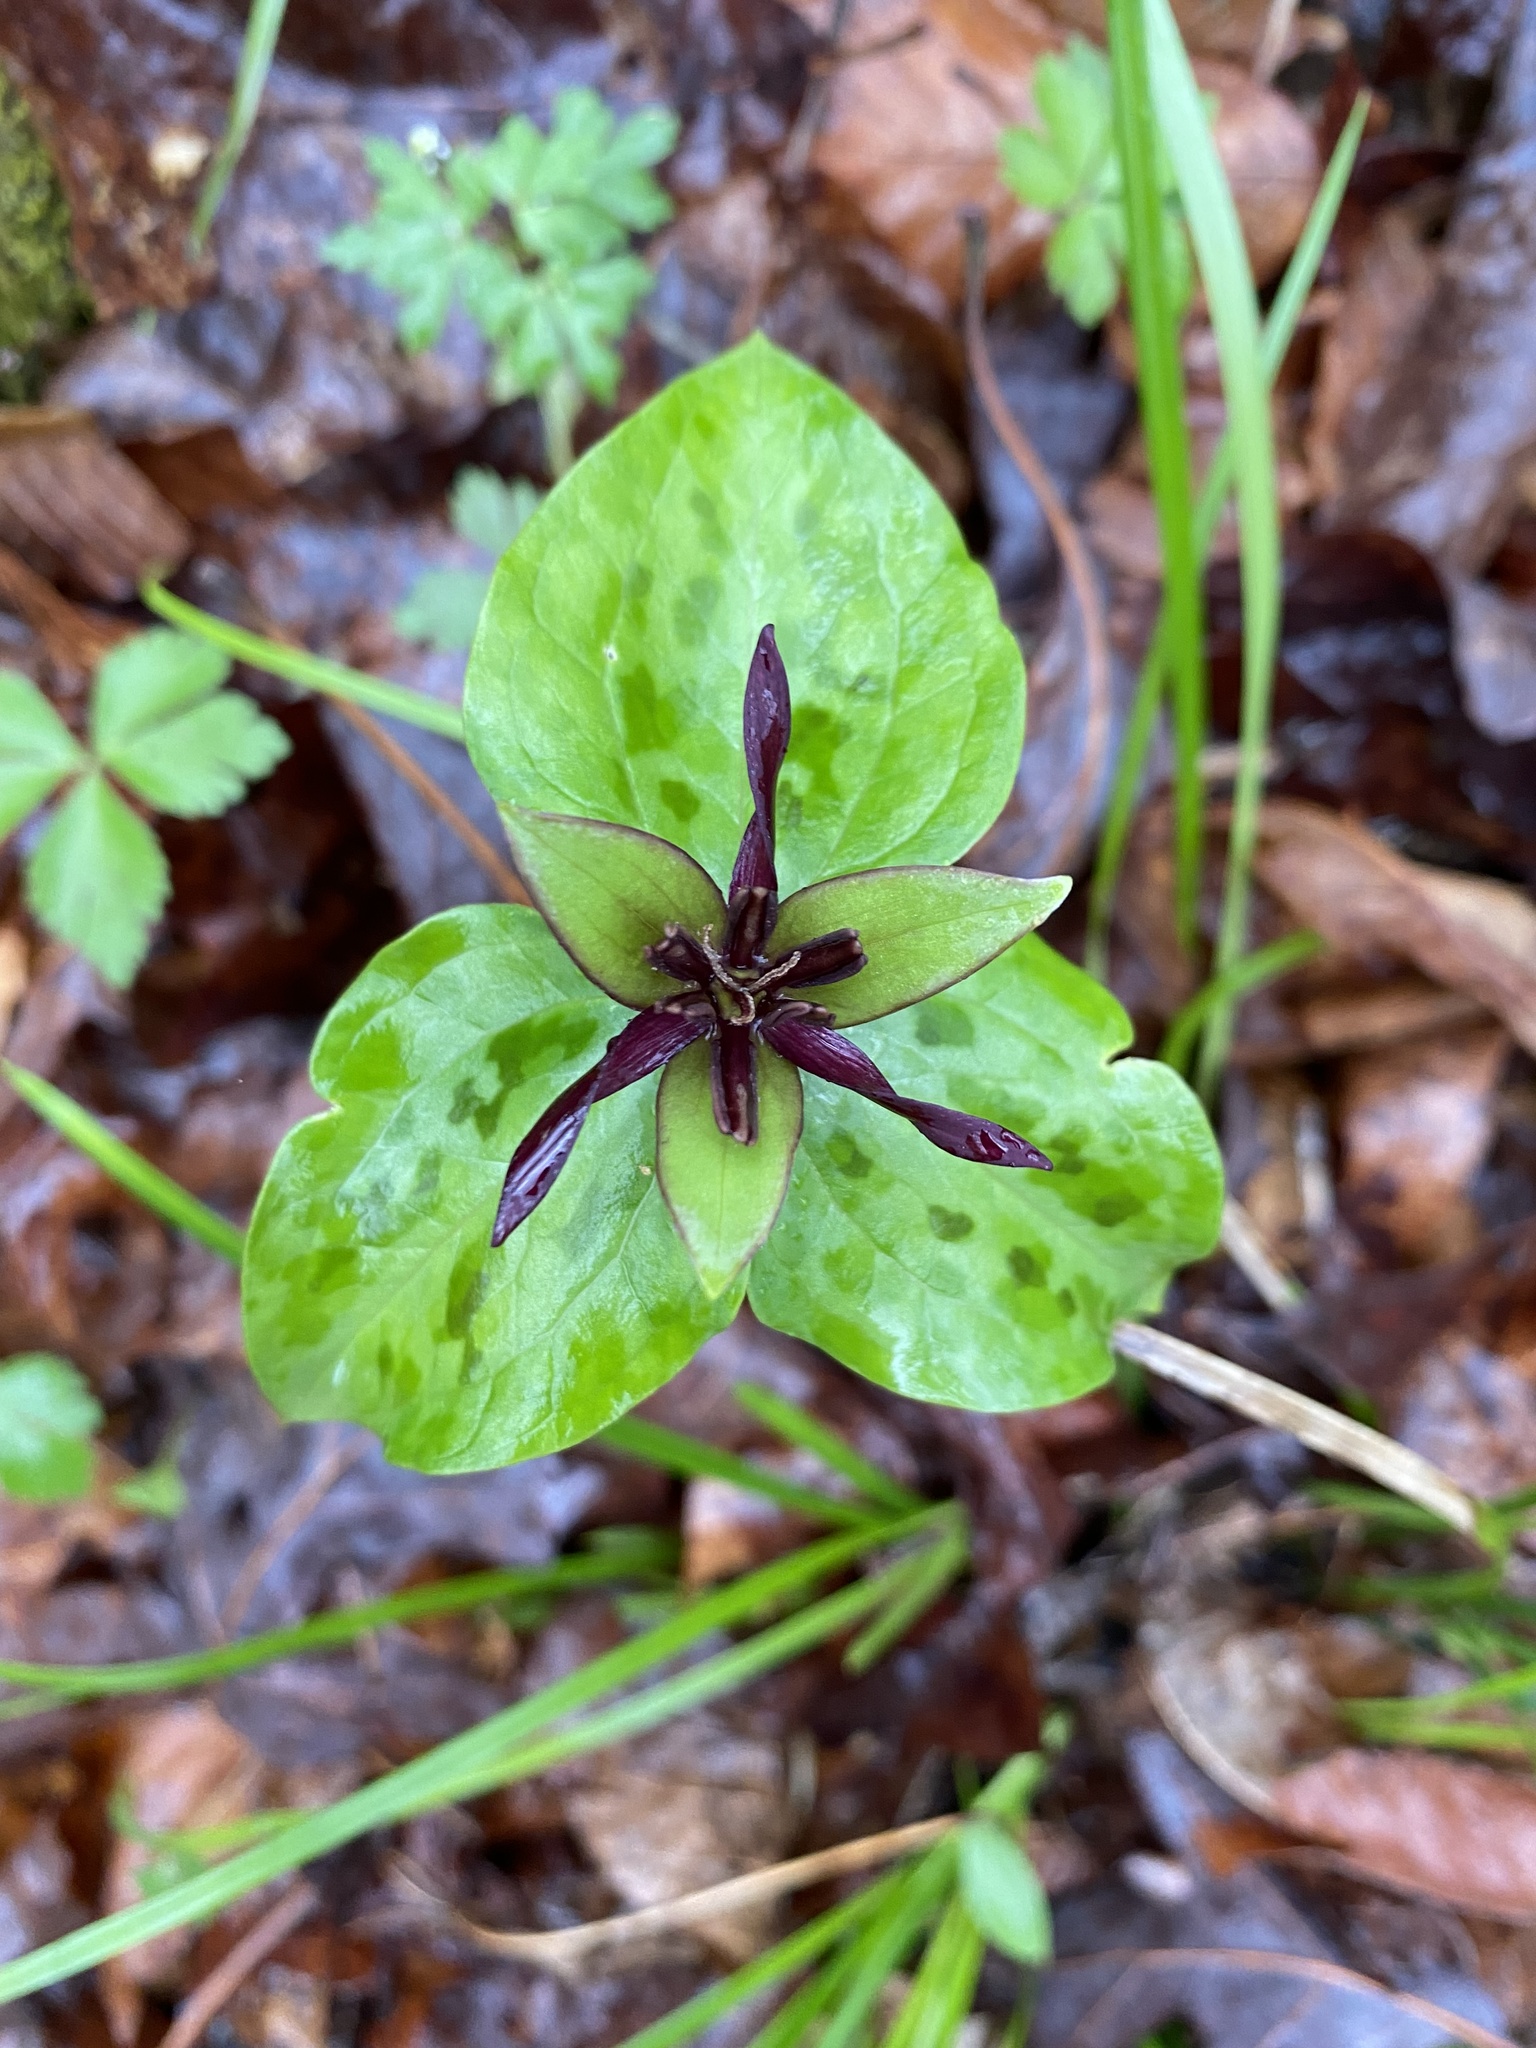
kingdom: Plantae
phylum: Tracheophyta
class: Liliopsida
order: Liliales
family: Melanthiaceae
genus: Trillium
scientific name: Trillium stamineum
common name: Blue ridge wakerobin
